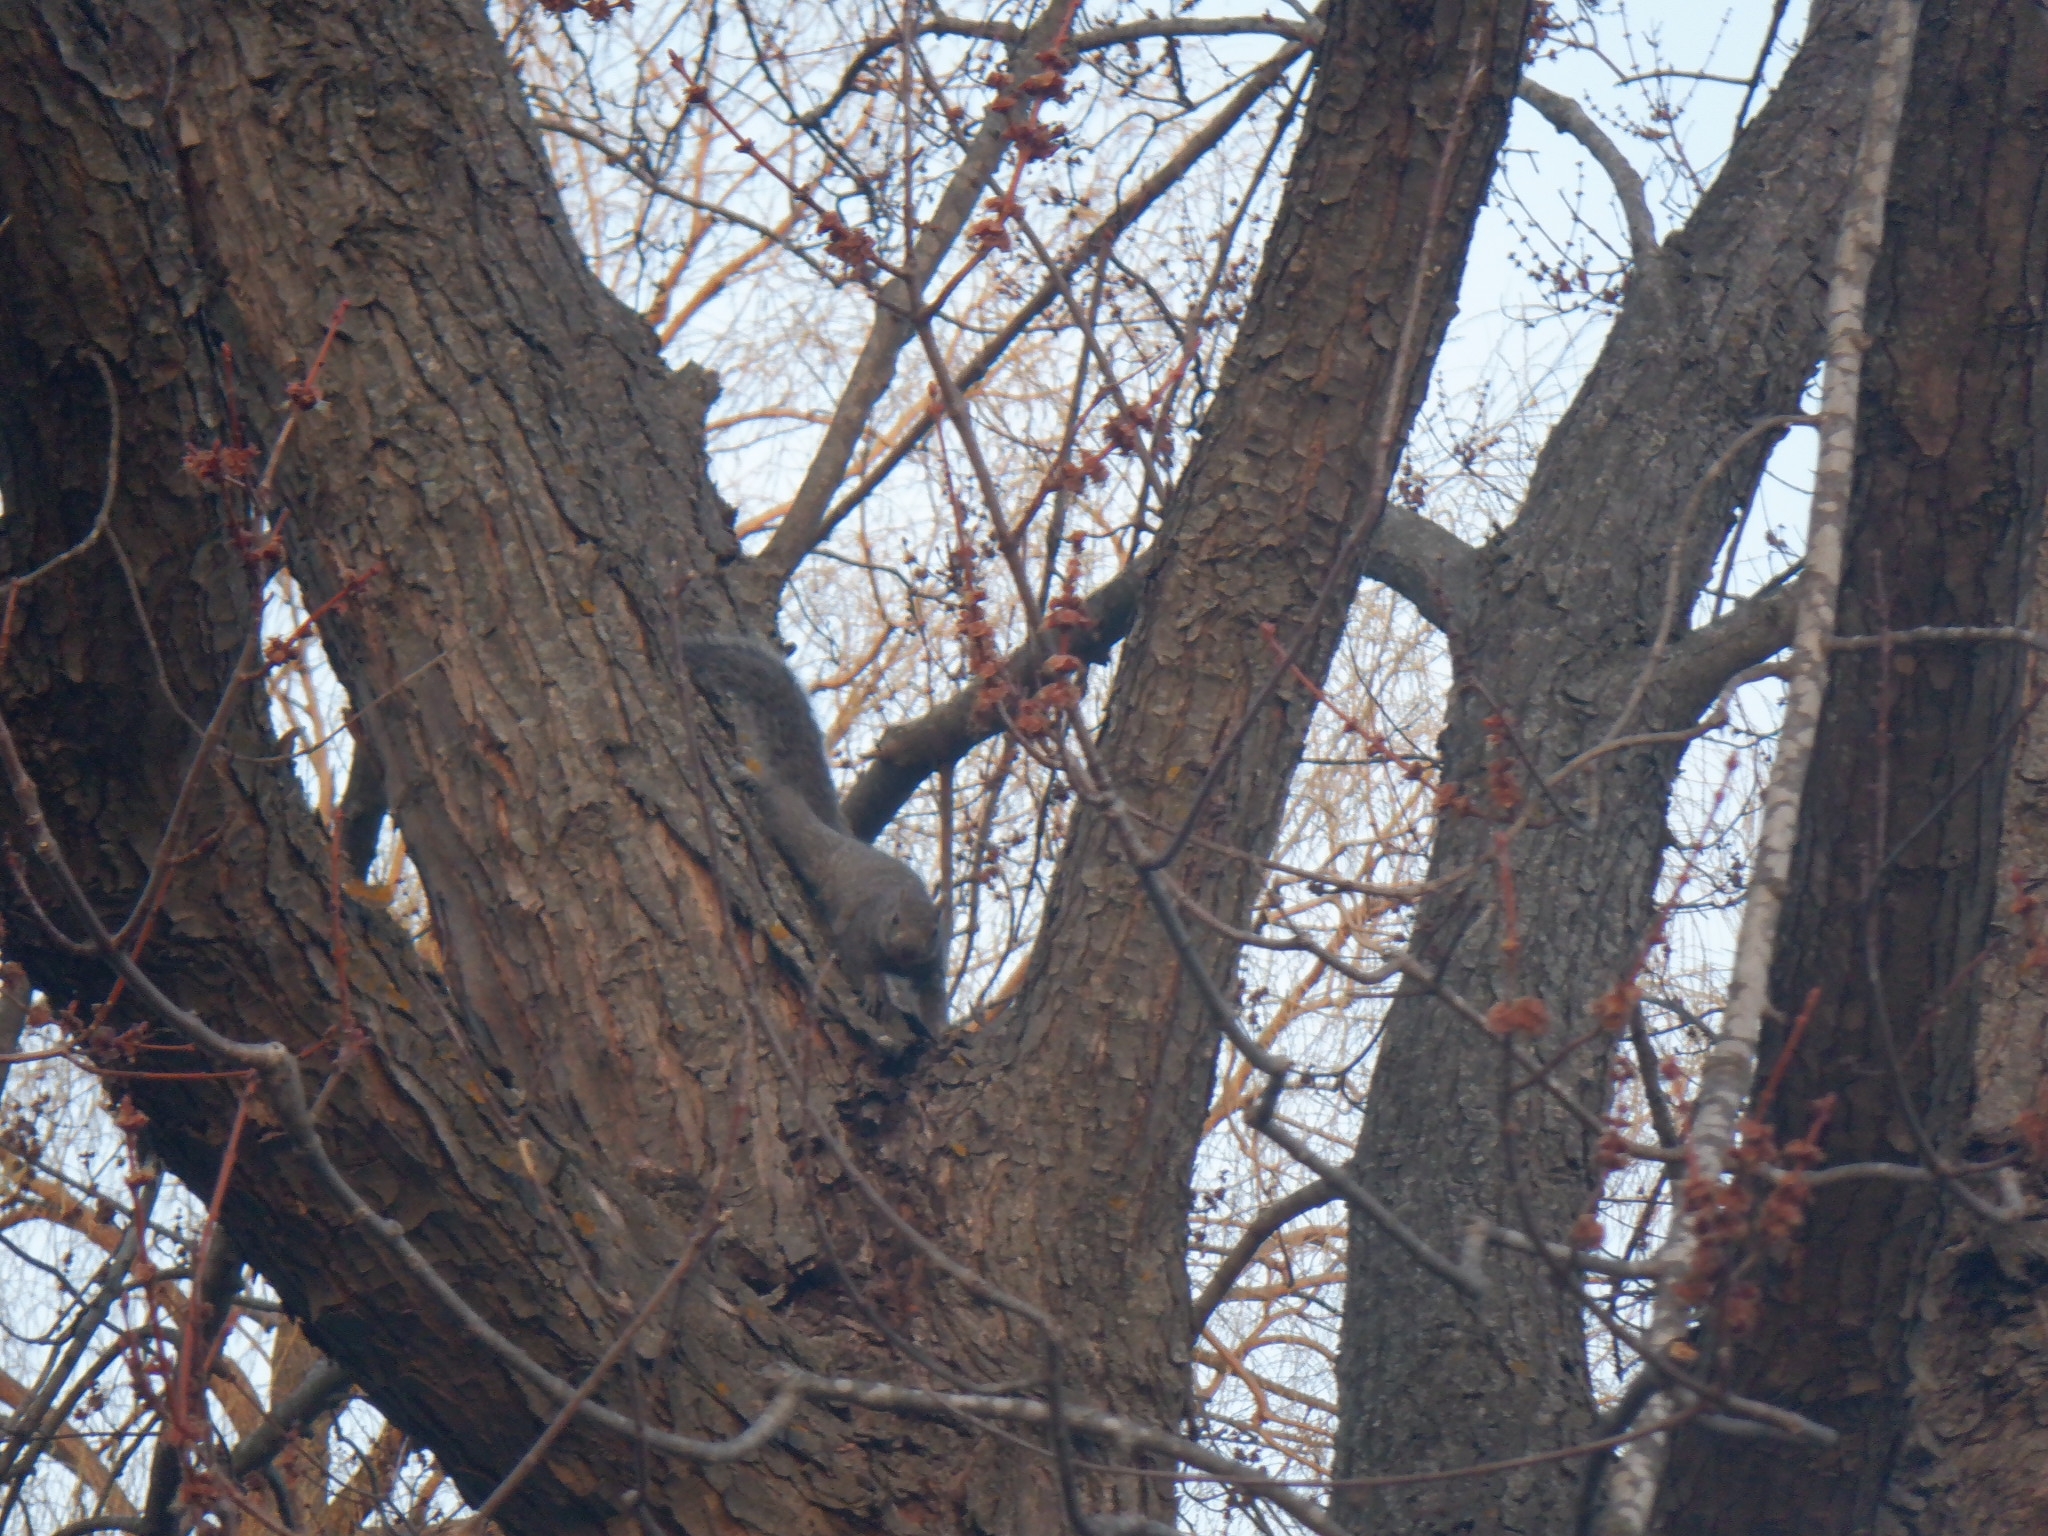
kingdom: Animalia
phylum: Chordata
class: Mammalia
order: Rodentia
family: Sciuridae
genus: Sciurus
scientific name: Sciurus carolinensis
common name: Eastern gray squirrel
